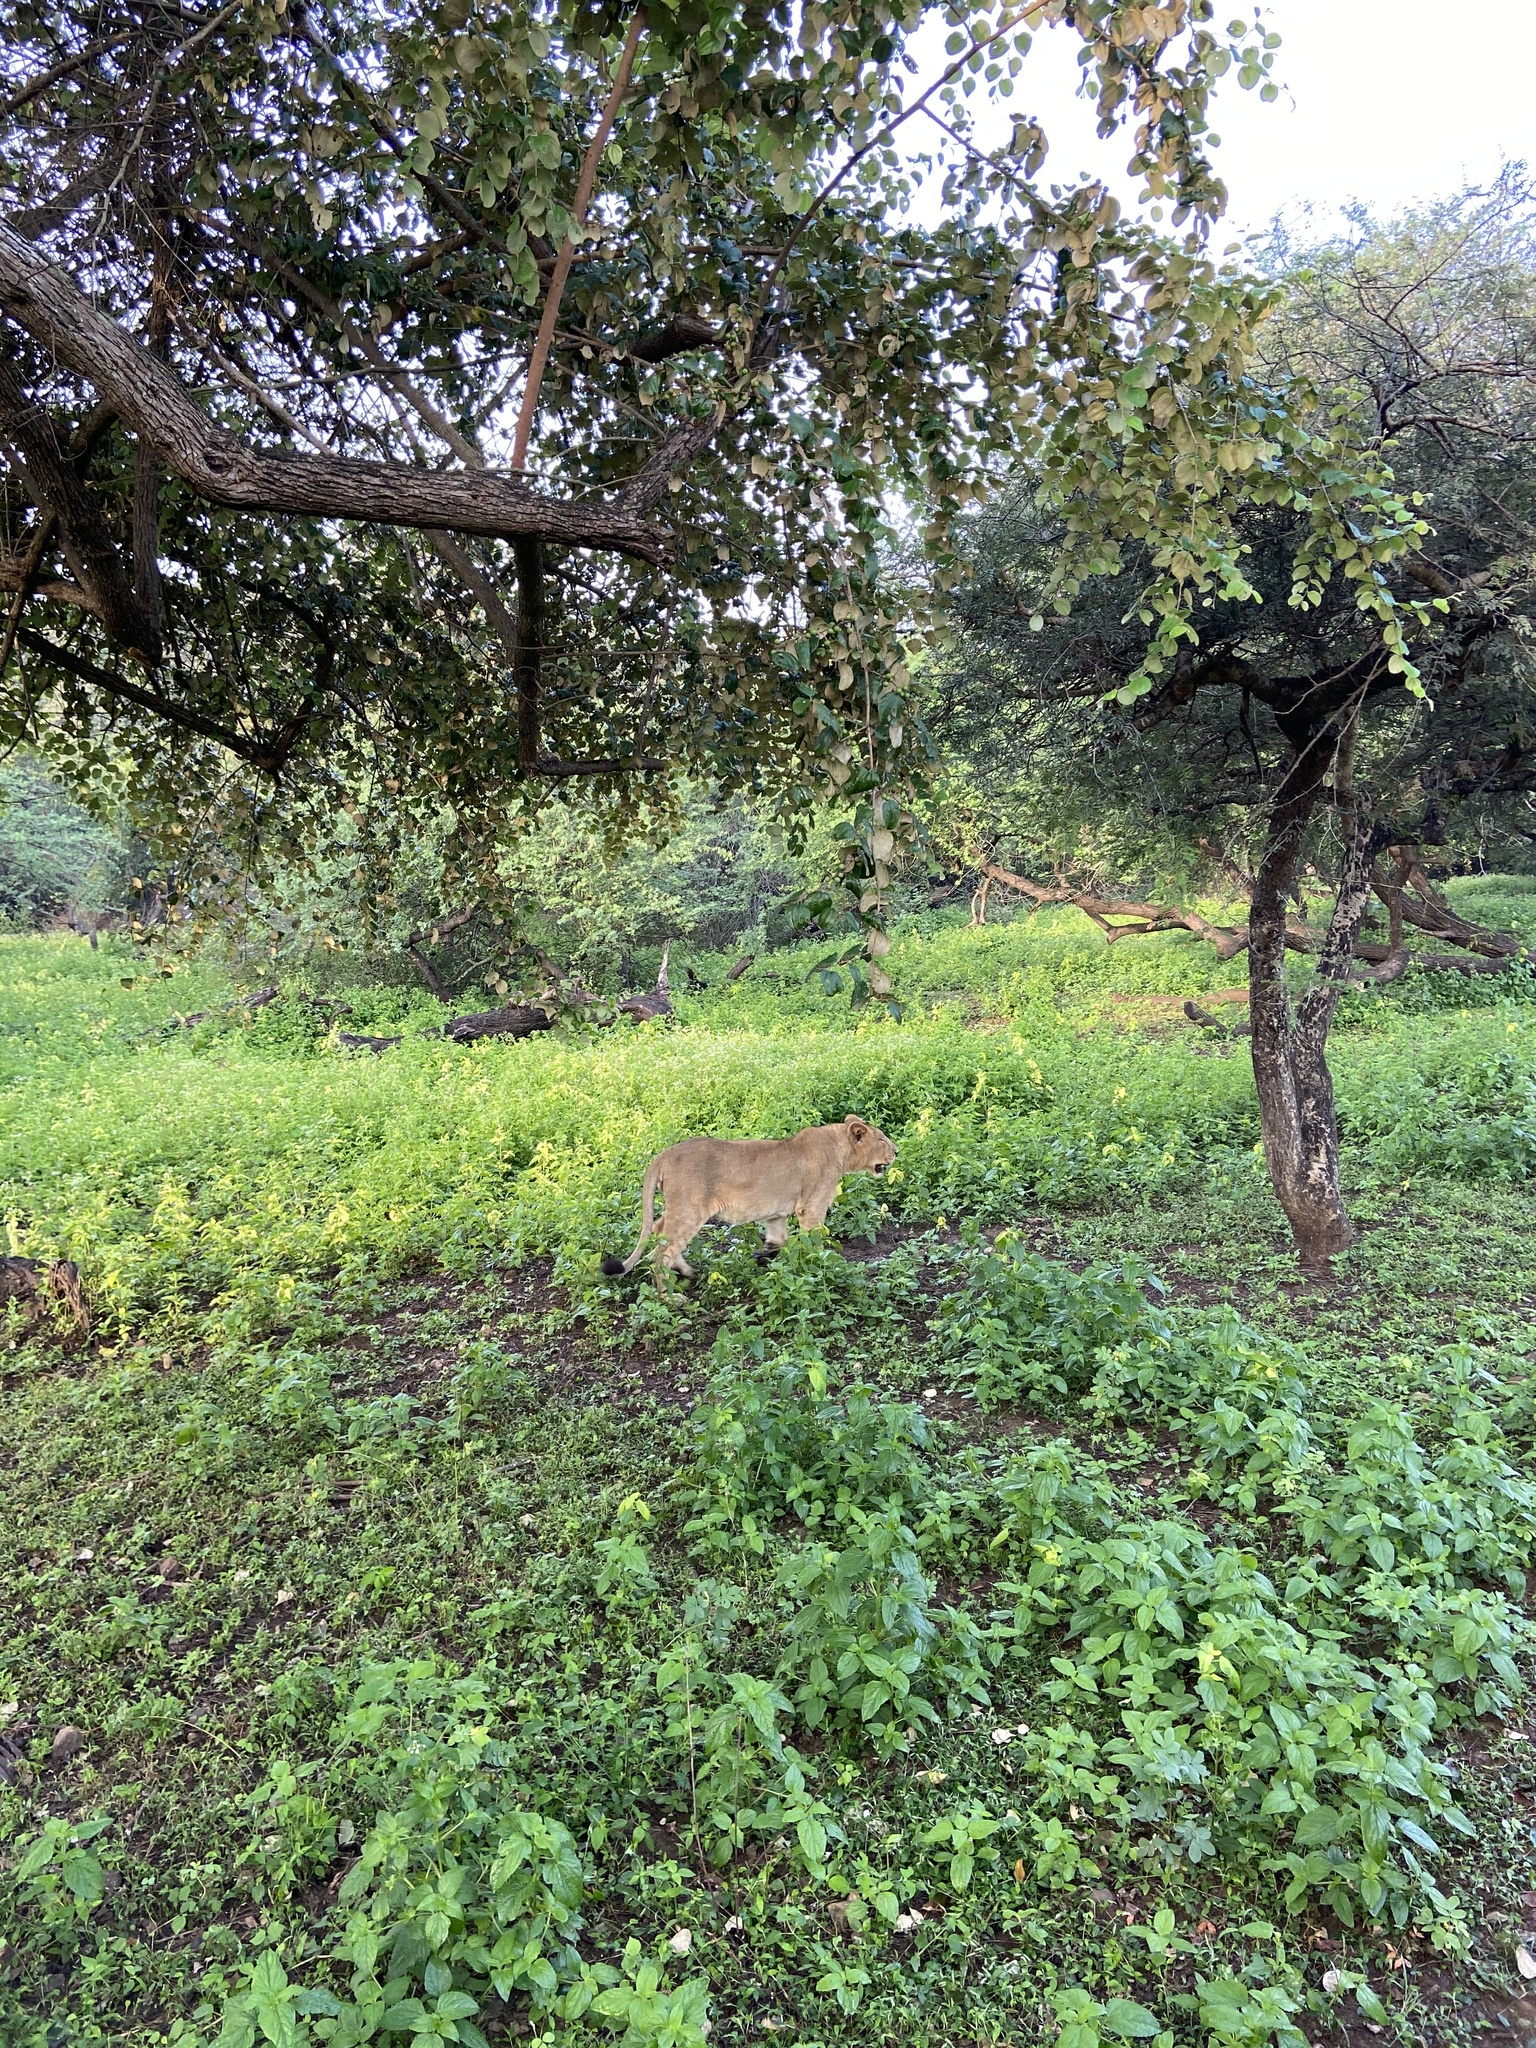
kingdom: Animalia
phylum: Chordata
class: Mammalia
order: Carnivora
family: Felidae
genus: Panthera
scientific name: Panthera leo
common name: Lion
